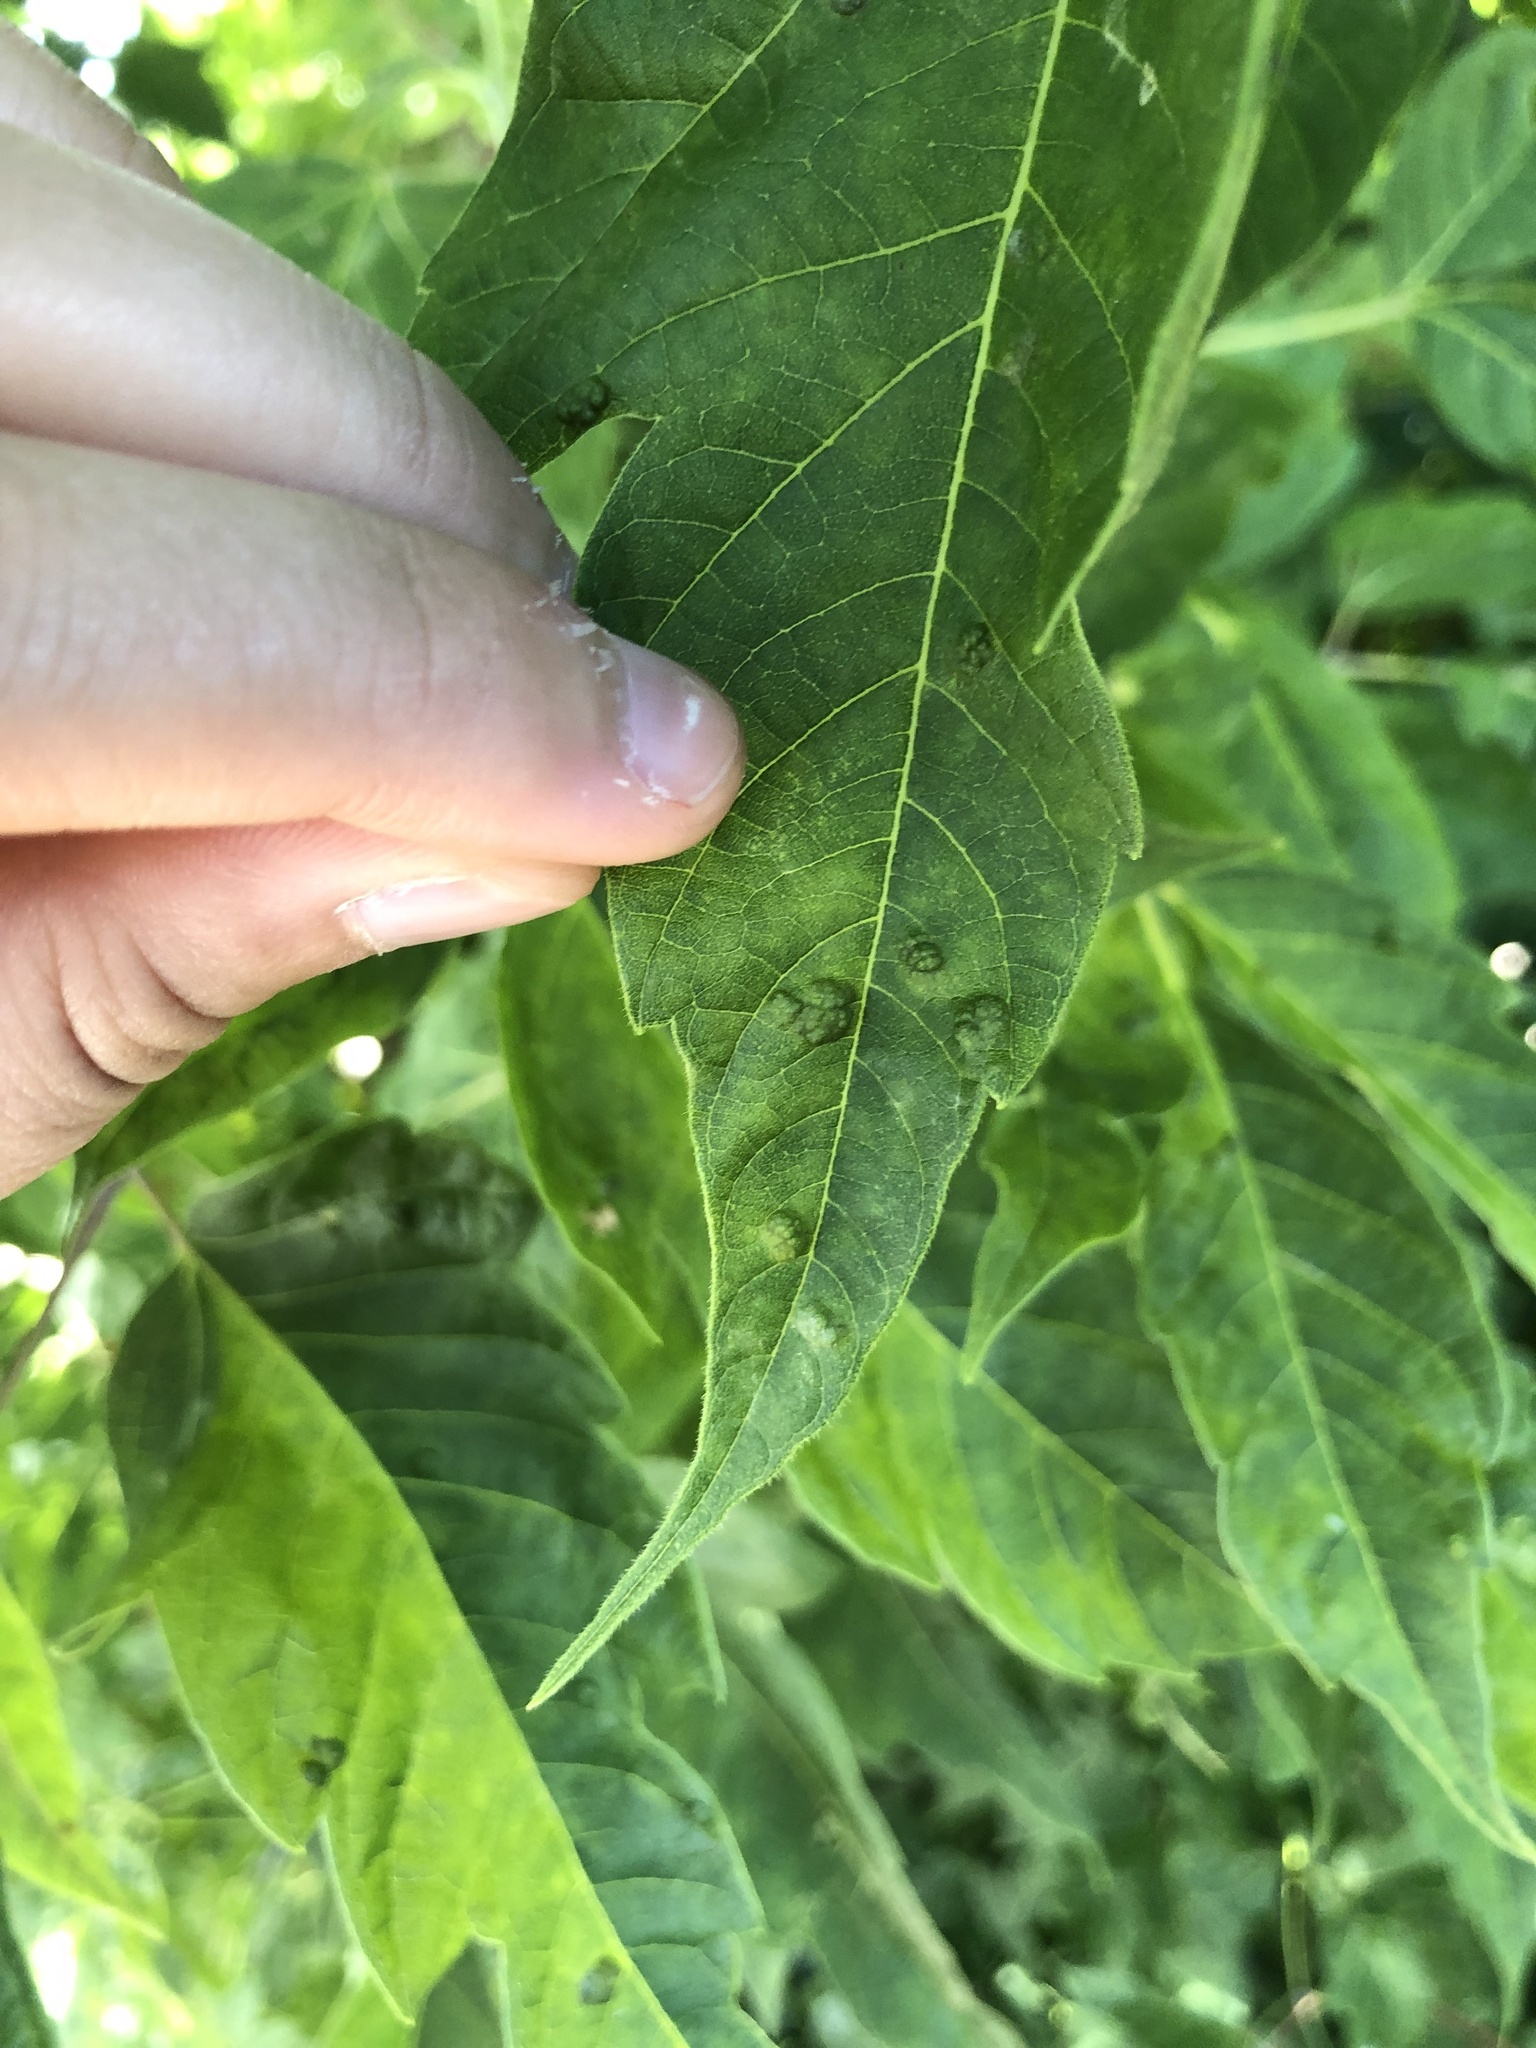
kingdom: Animalia
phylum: Arthropoda
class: Arachnida
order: Trombidiformes
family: Eriophyidae
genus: Aceria
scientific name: Aceria
